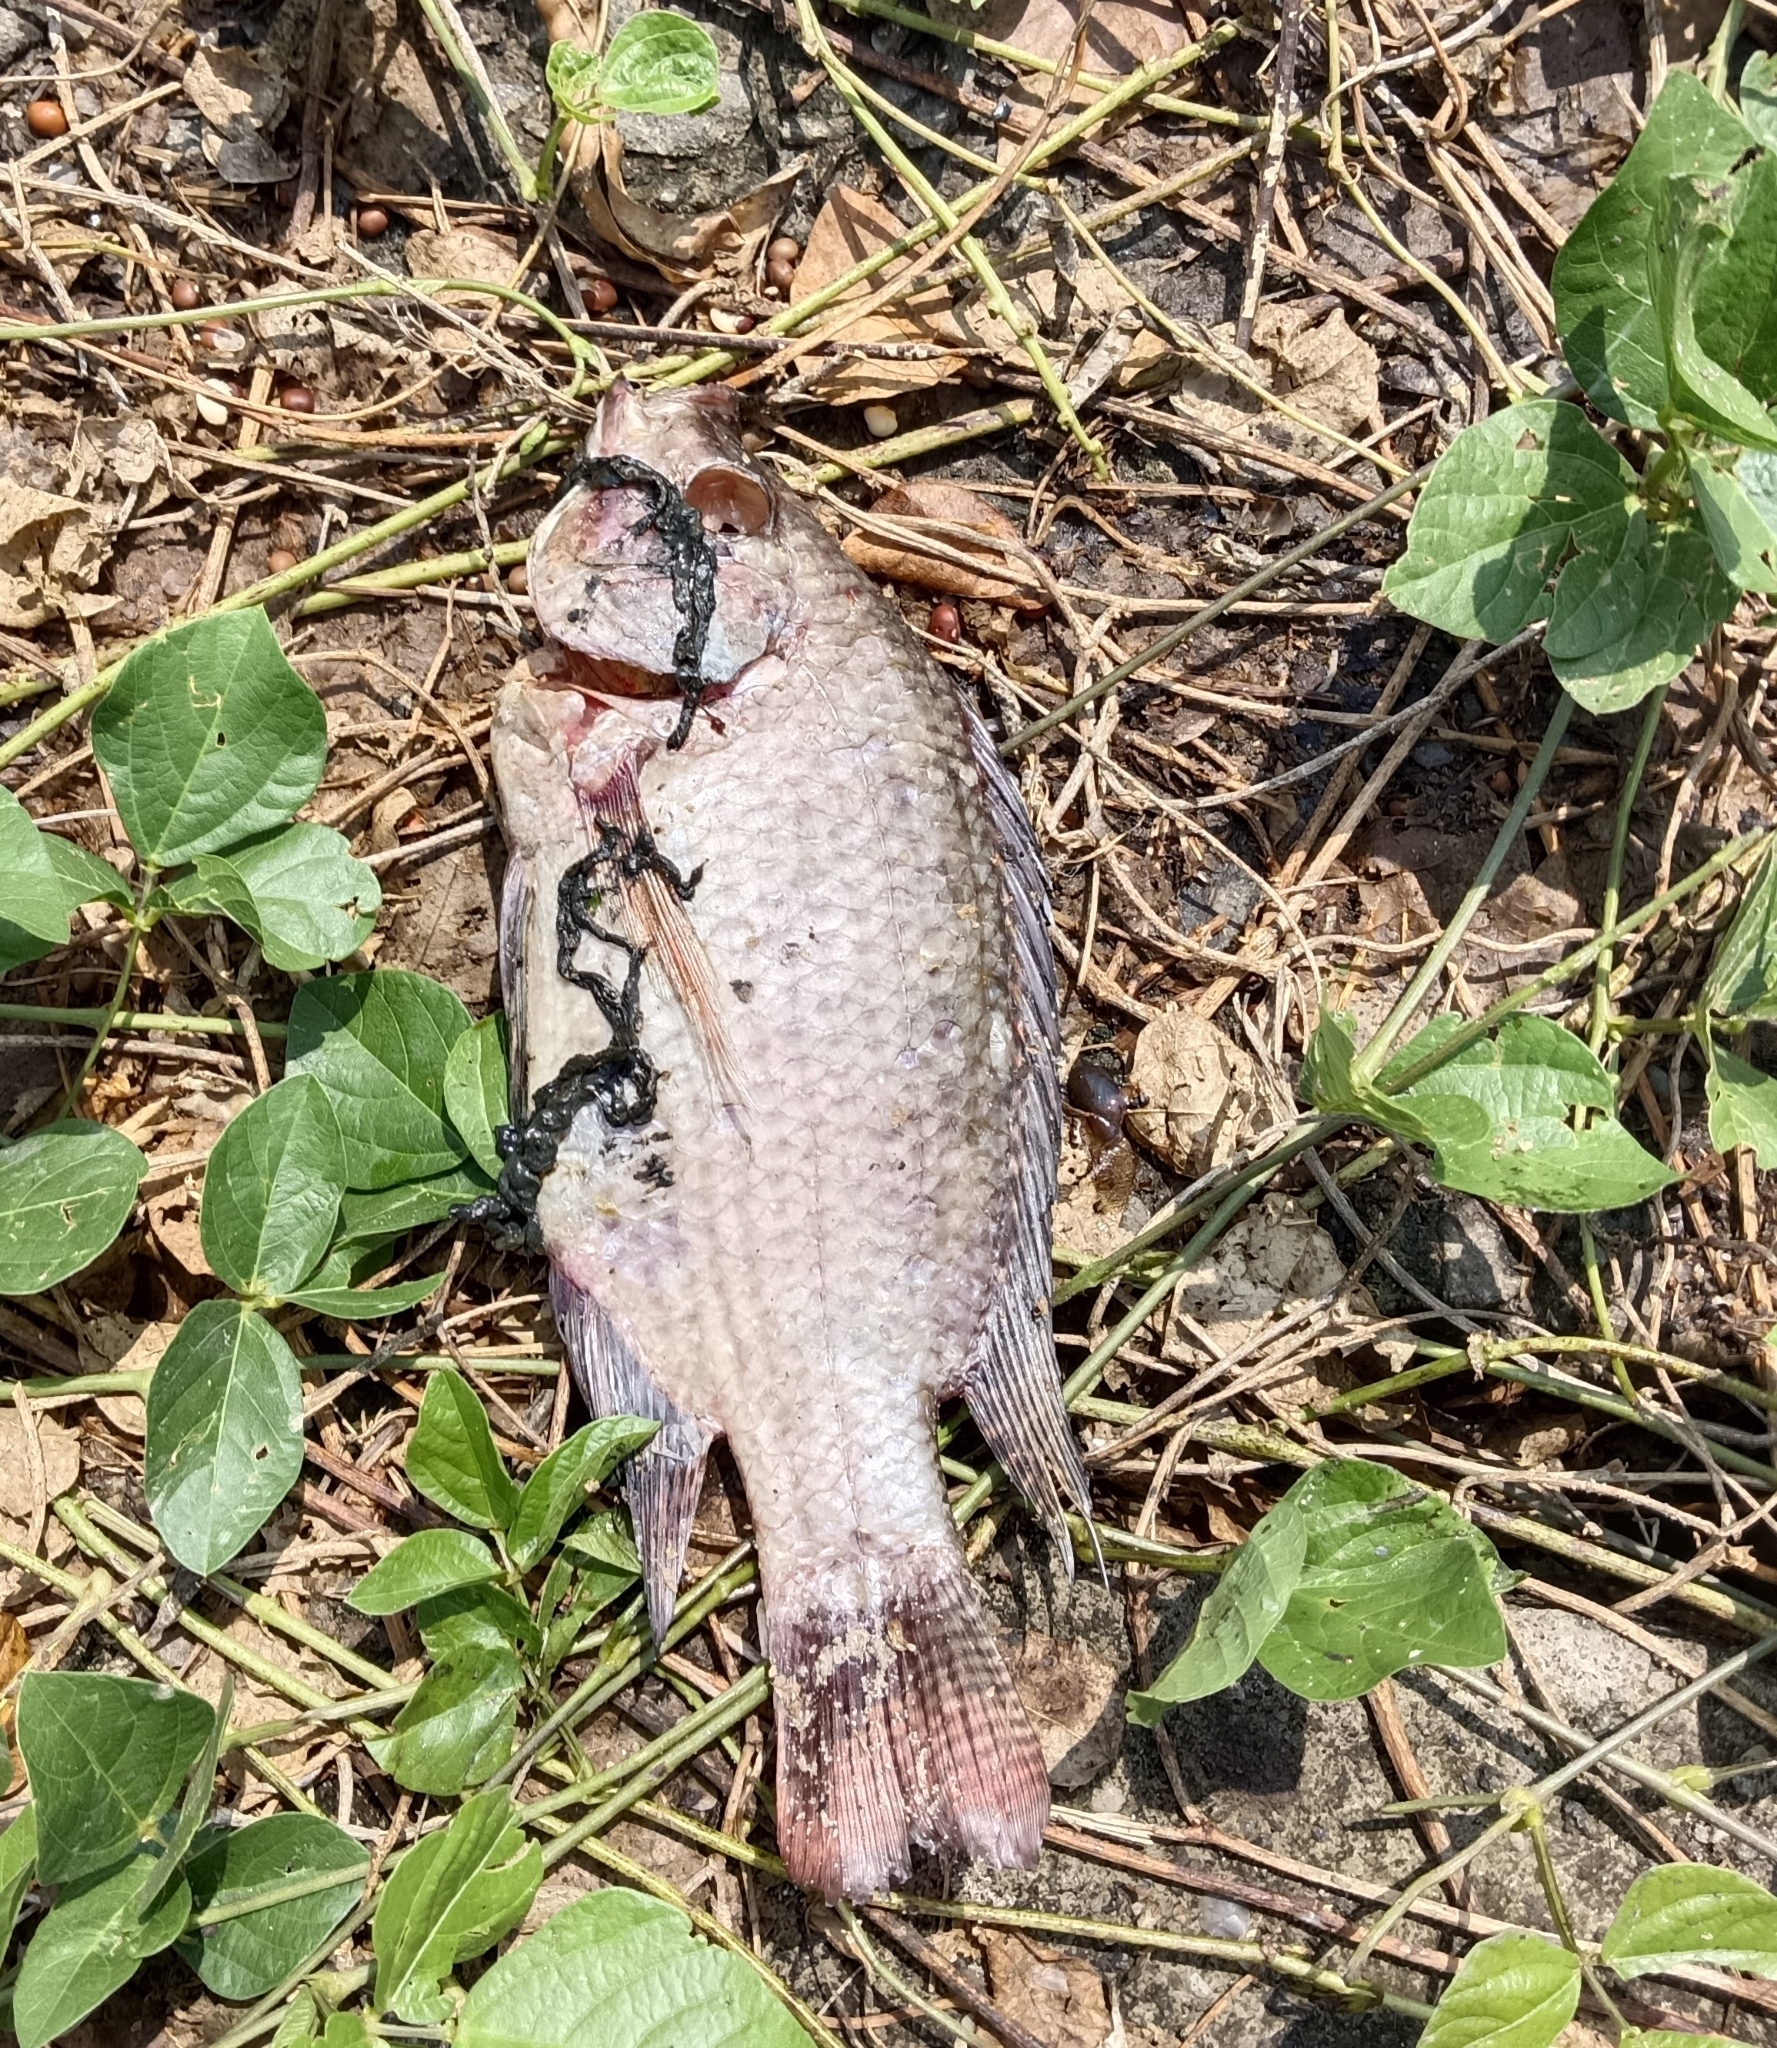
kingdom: Animalia
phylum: Chordata
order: Perciformes
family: Cichlidae
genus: Oreochromis
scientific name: Oreochromis mossambicus
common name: Mozambique tilapia
